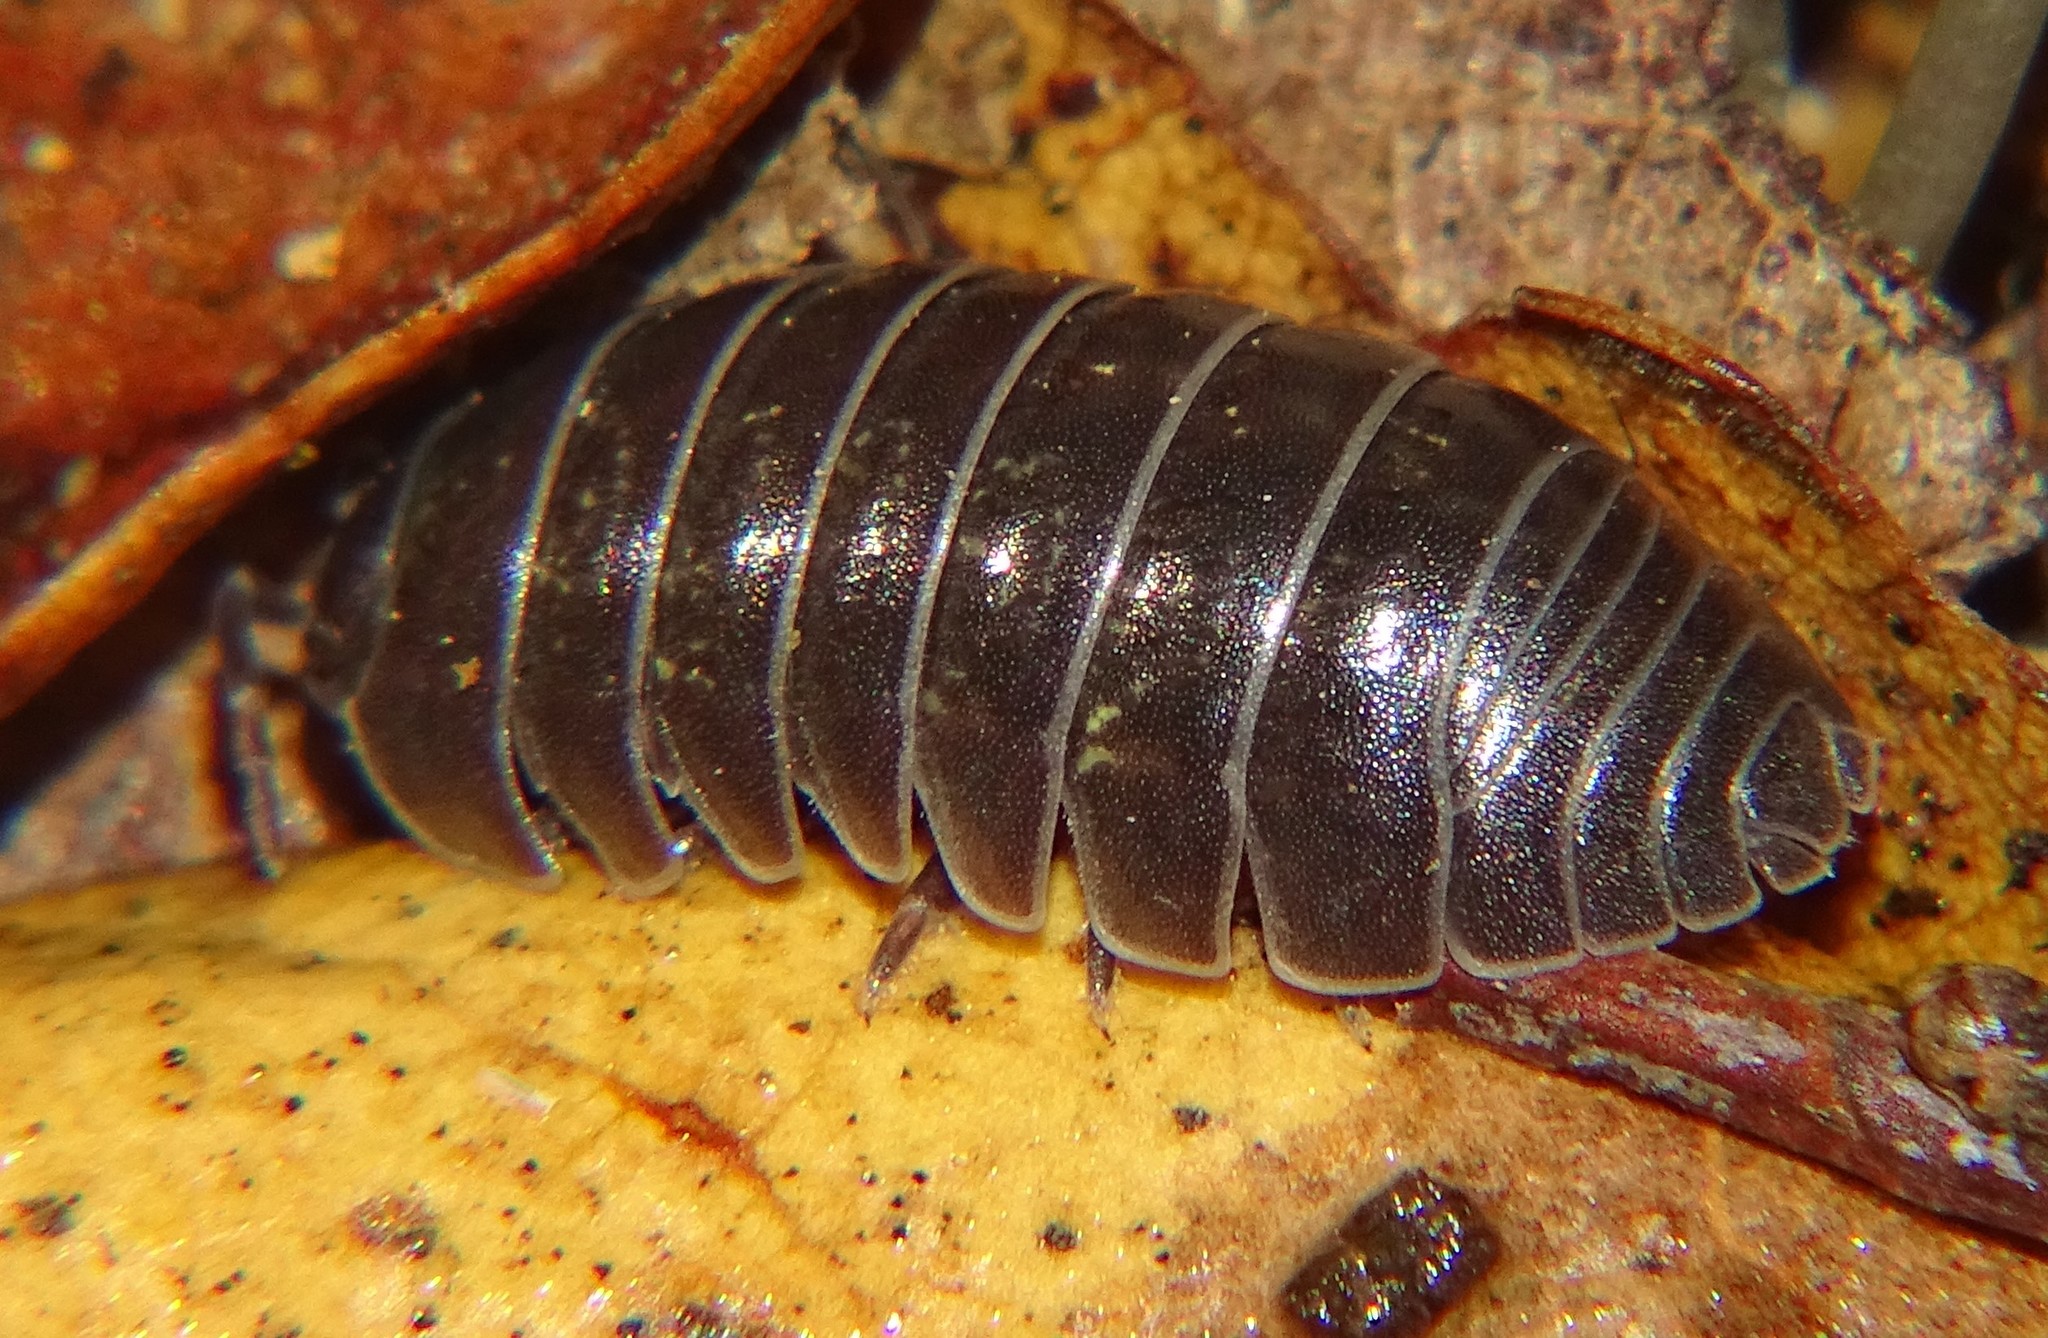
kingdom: Animalia
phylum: Arthropoda
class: Malacostraca
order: Isopoda
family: Armadillidiidae
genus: Armadillidium
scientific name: Armadillidium vulgare
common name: Common pill woodlouse
